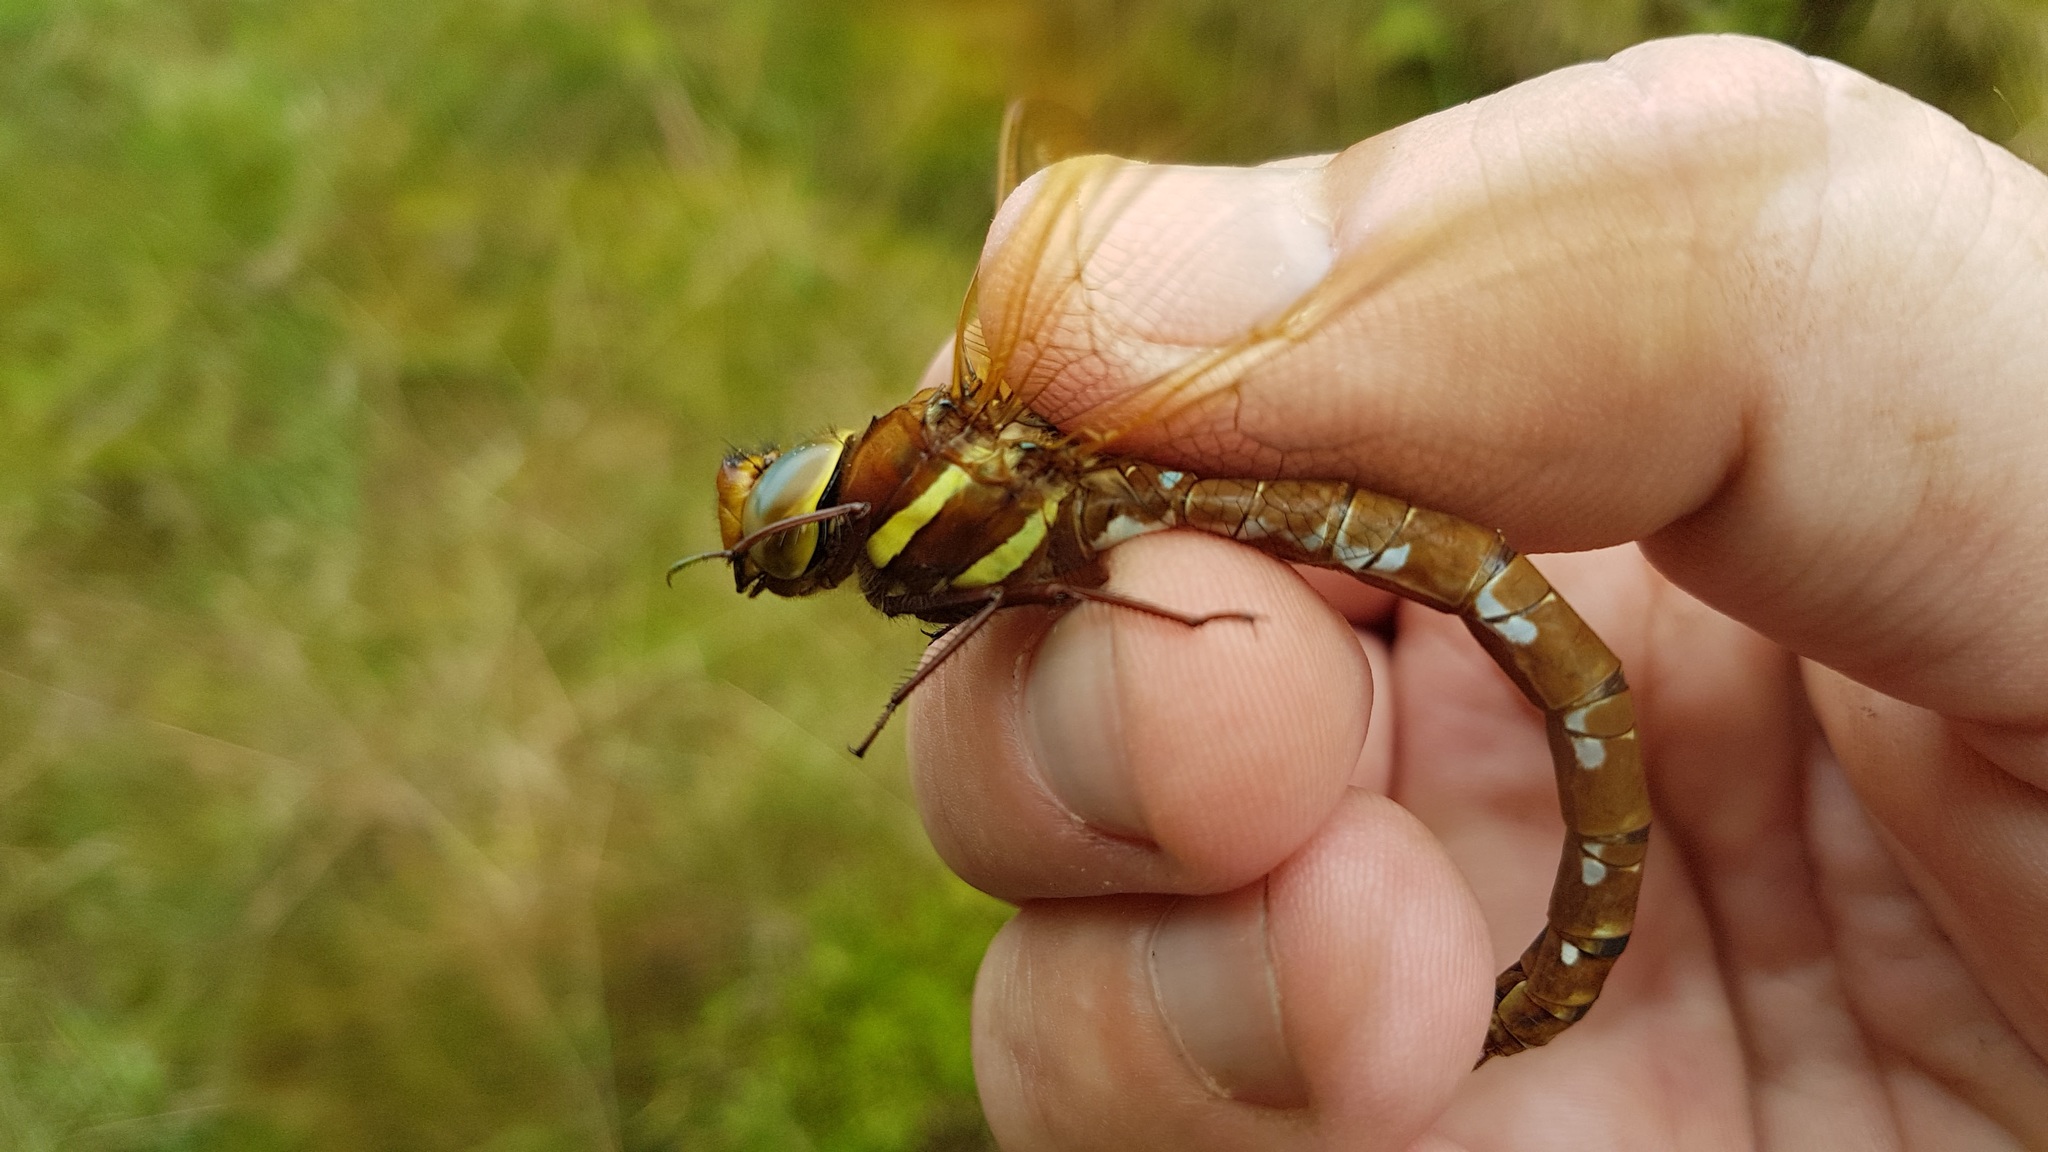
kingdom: Animalia
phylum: Arthropoda
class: Insecta
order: Odonata
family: Aeshnidae
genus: Aeshna
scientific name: Aeshna grandis
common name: Brown hawker
